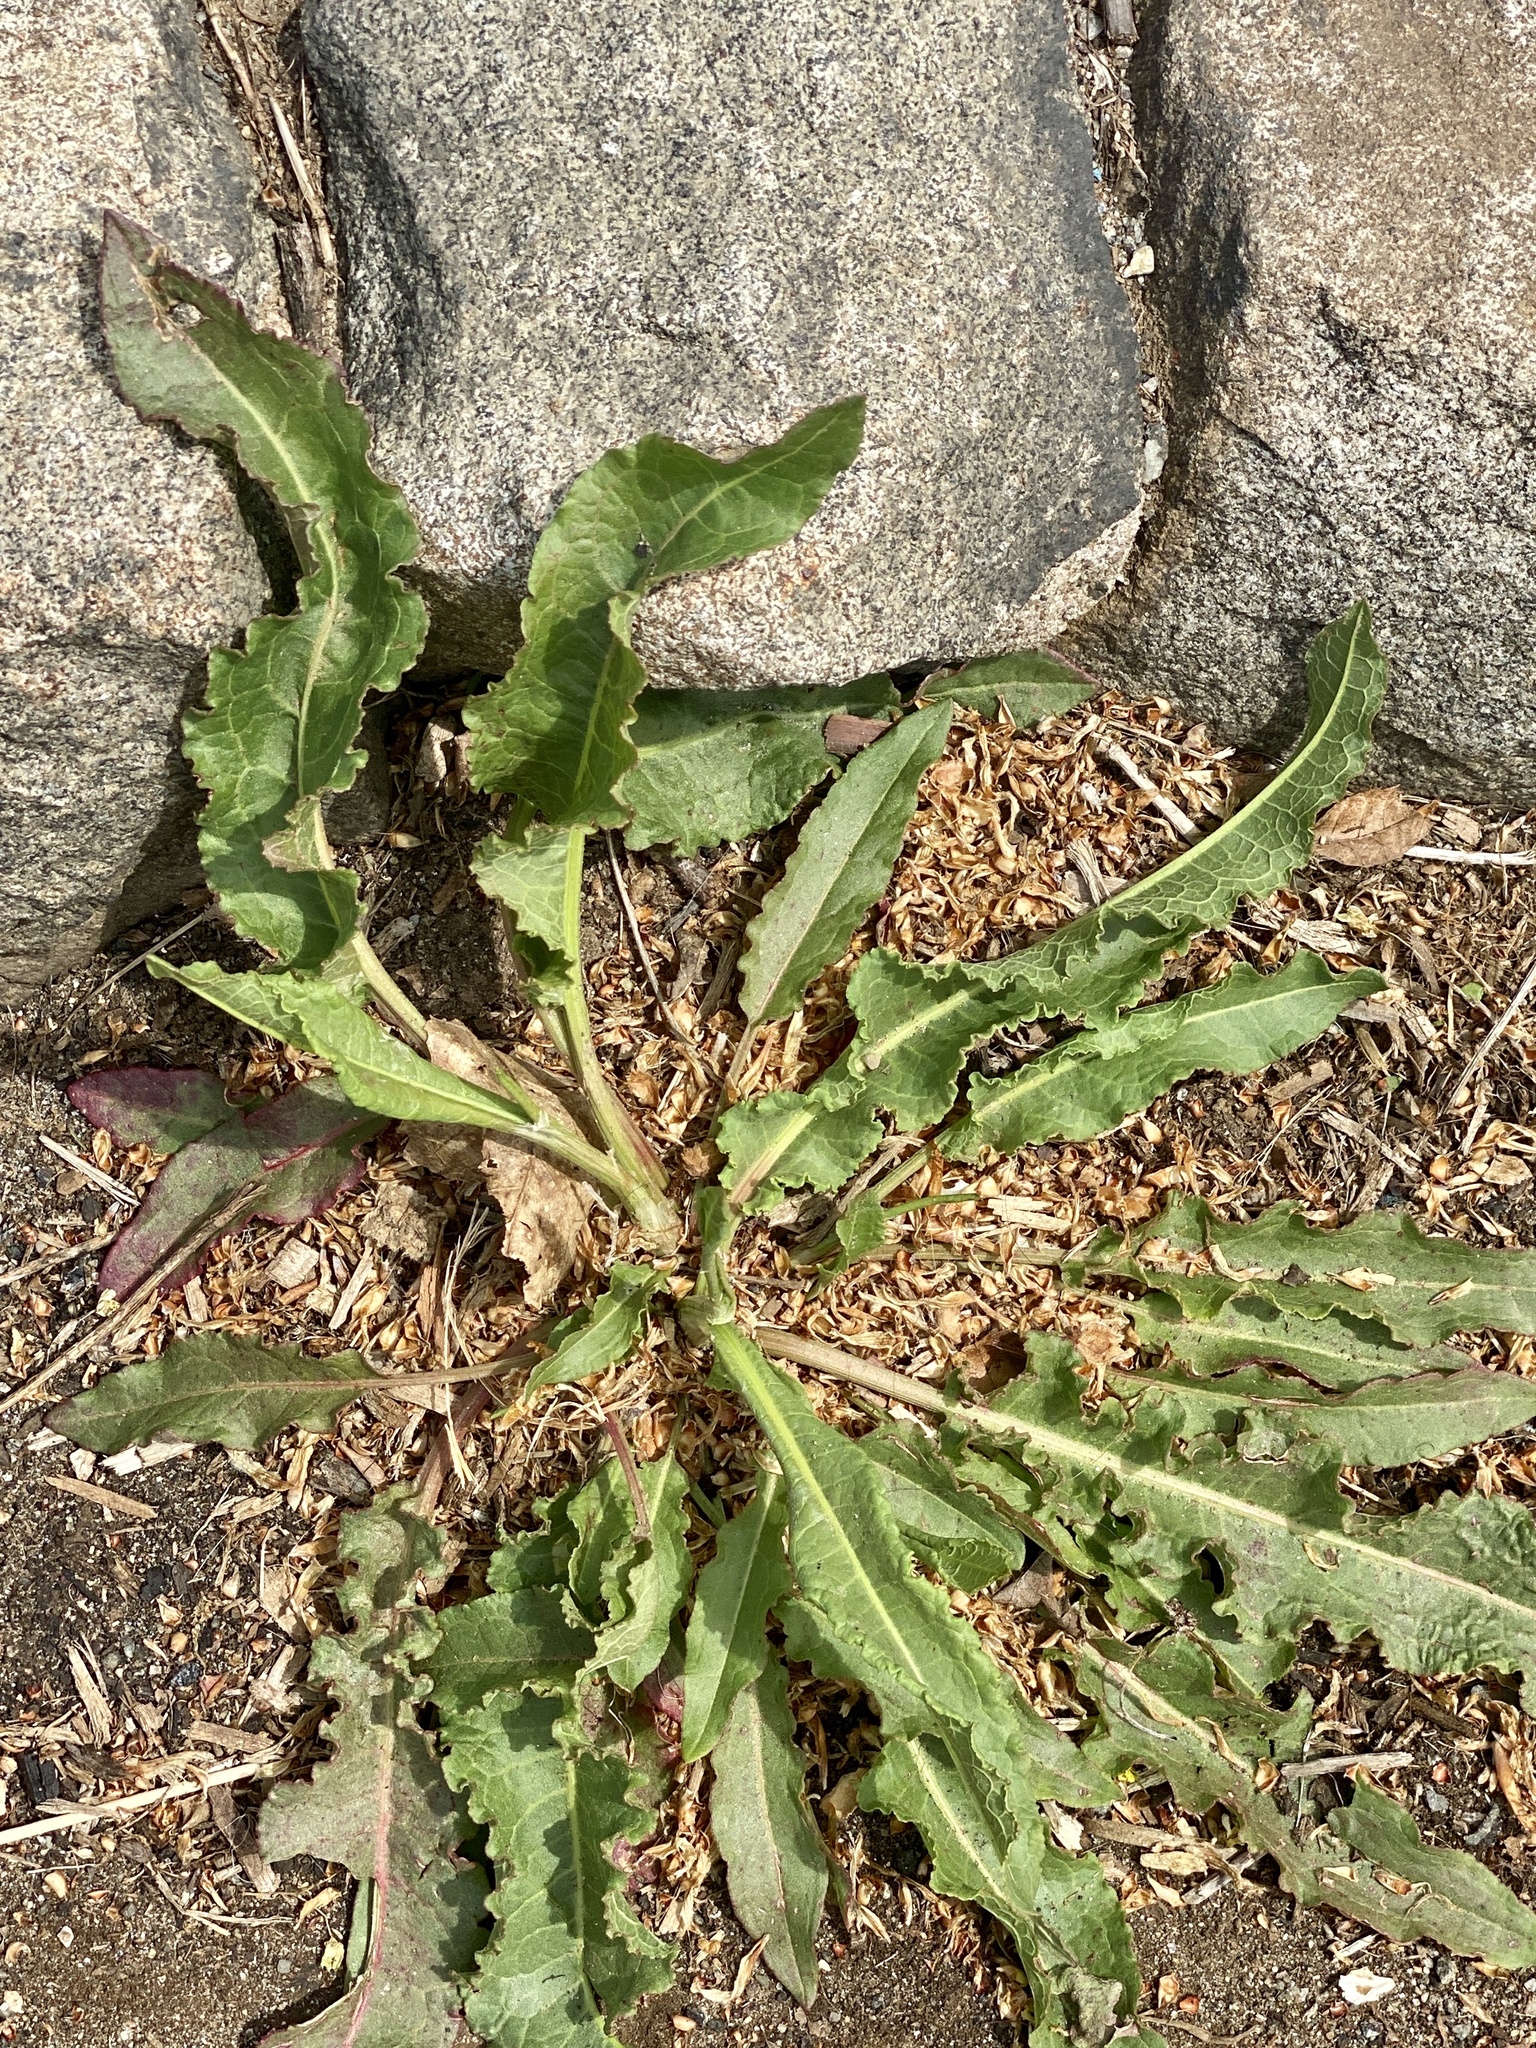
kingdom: Plantae
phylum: Tracheophyta
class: Magnoliopsida
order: Caryophyllales
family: Polygonaceae
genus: Rumex
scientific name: Rumex crispus
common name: Curled dock
